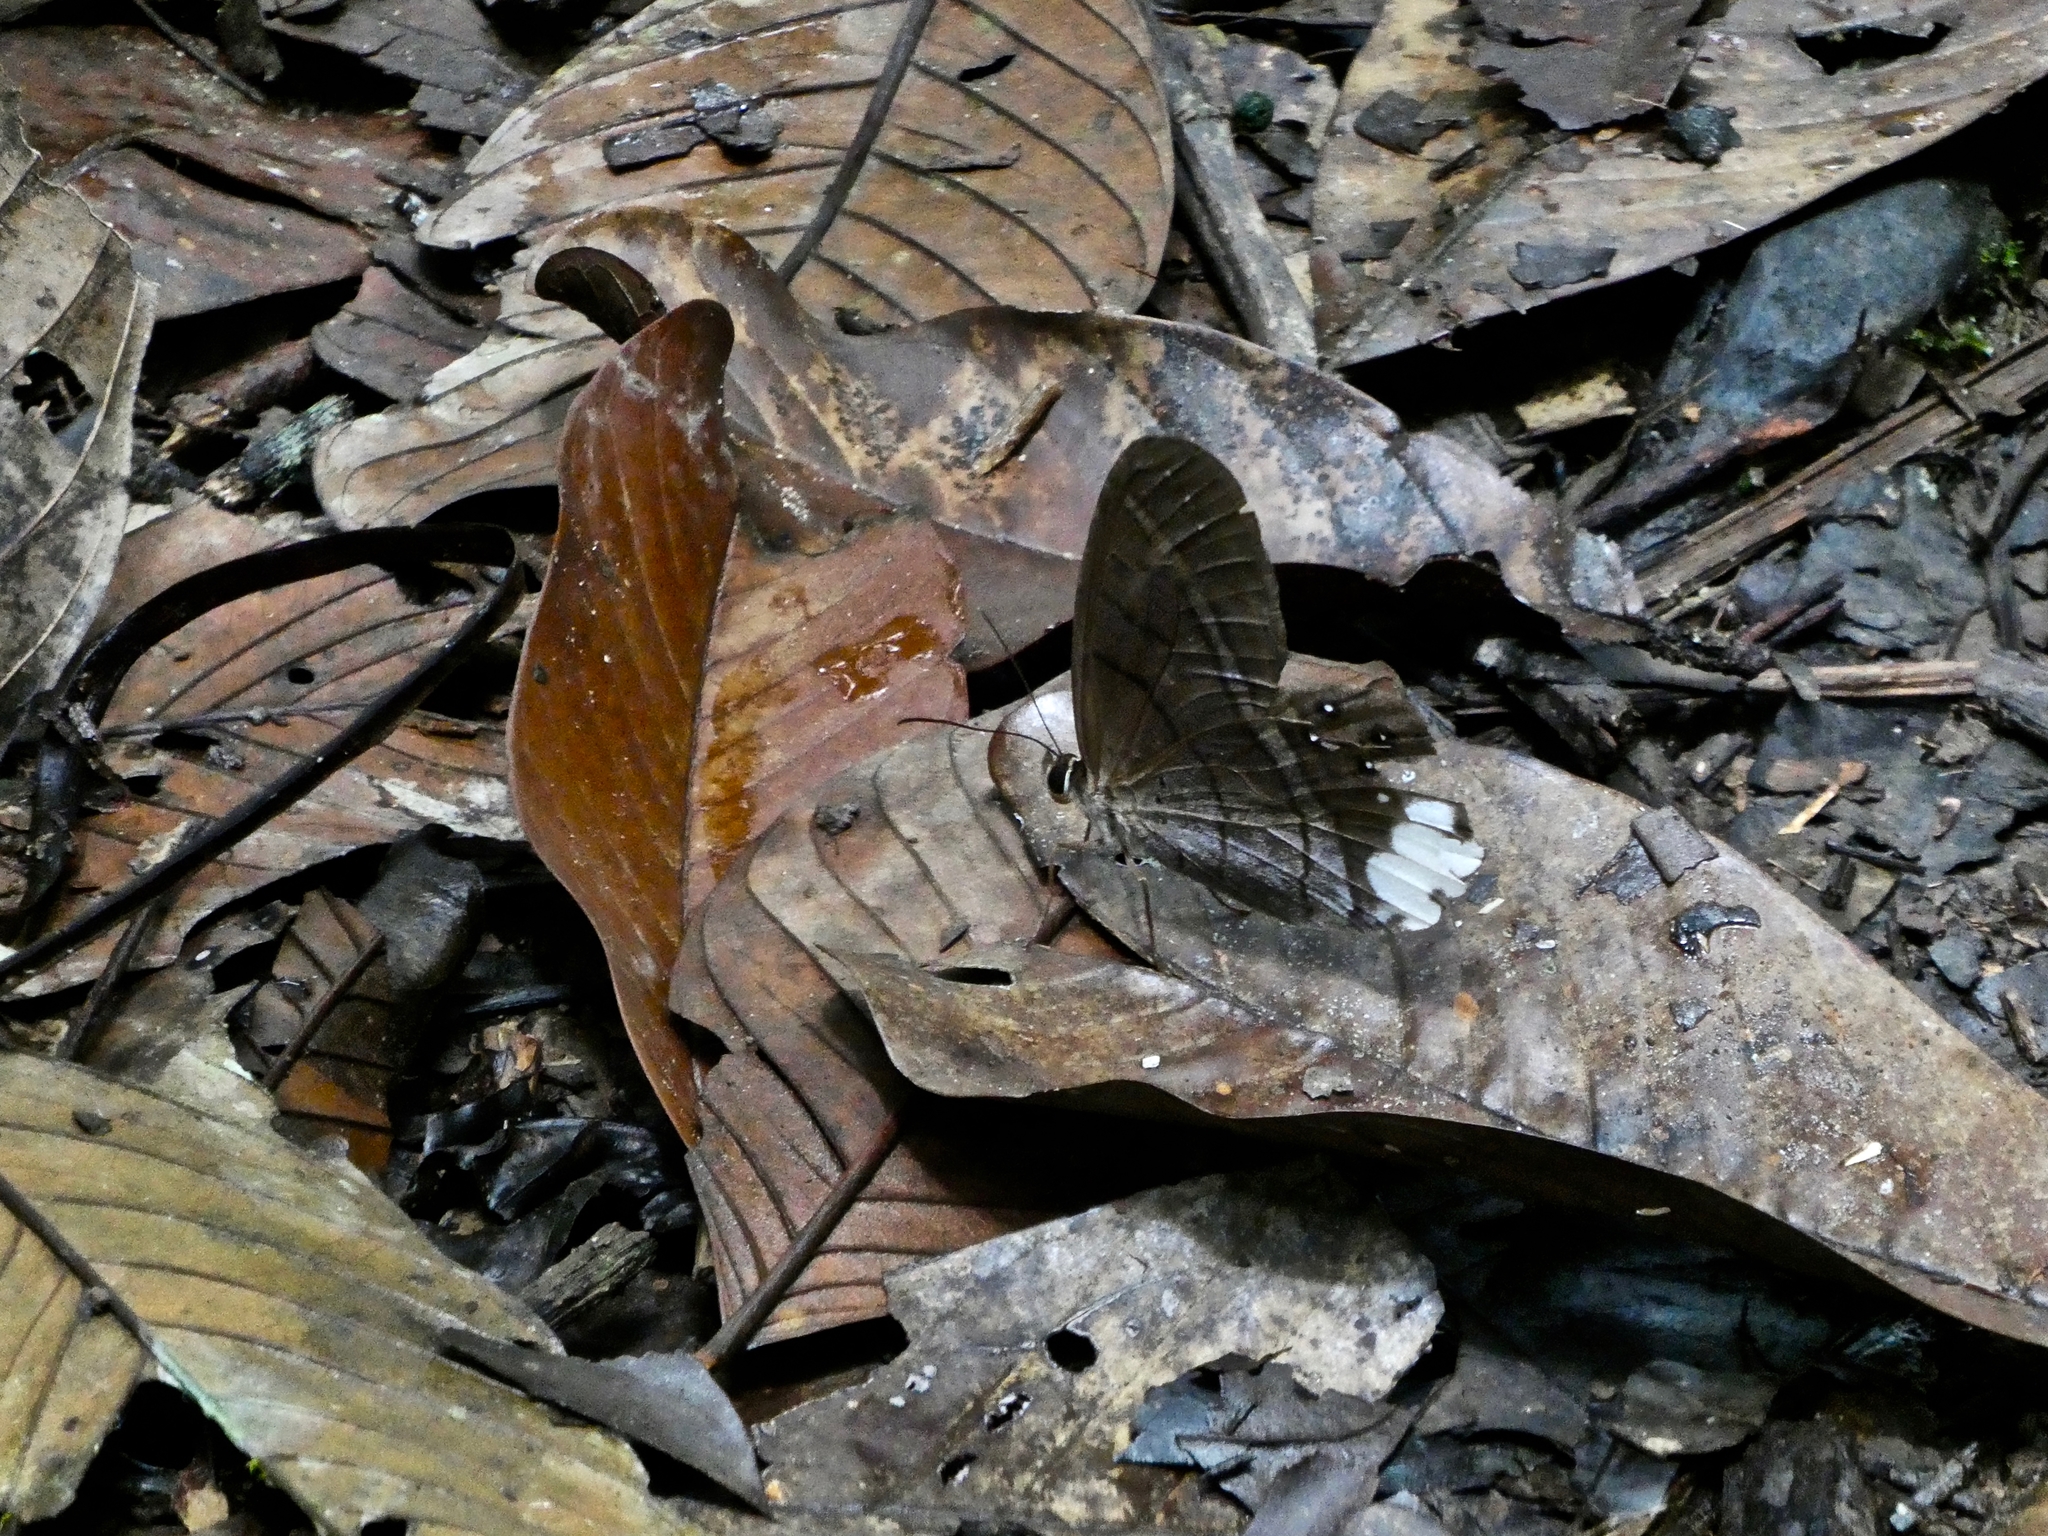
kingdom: Animalia
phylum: Arthropoda
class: Insecta
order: Lepidoptera
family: Nymphalidae
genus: Pierella
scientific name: Pierella astyoche
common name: Astyoche satyr
